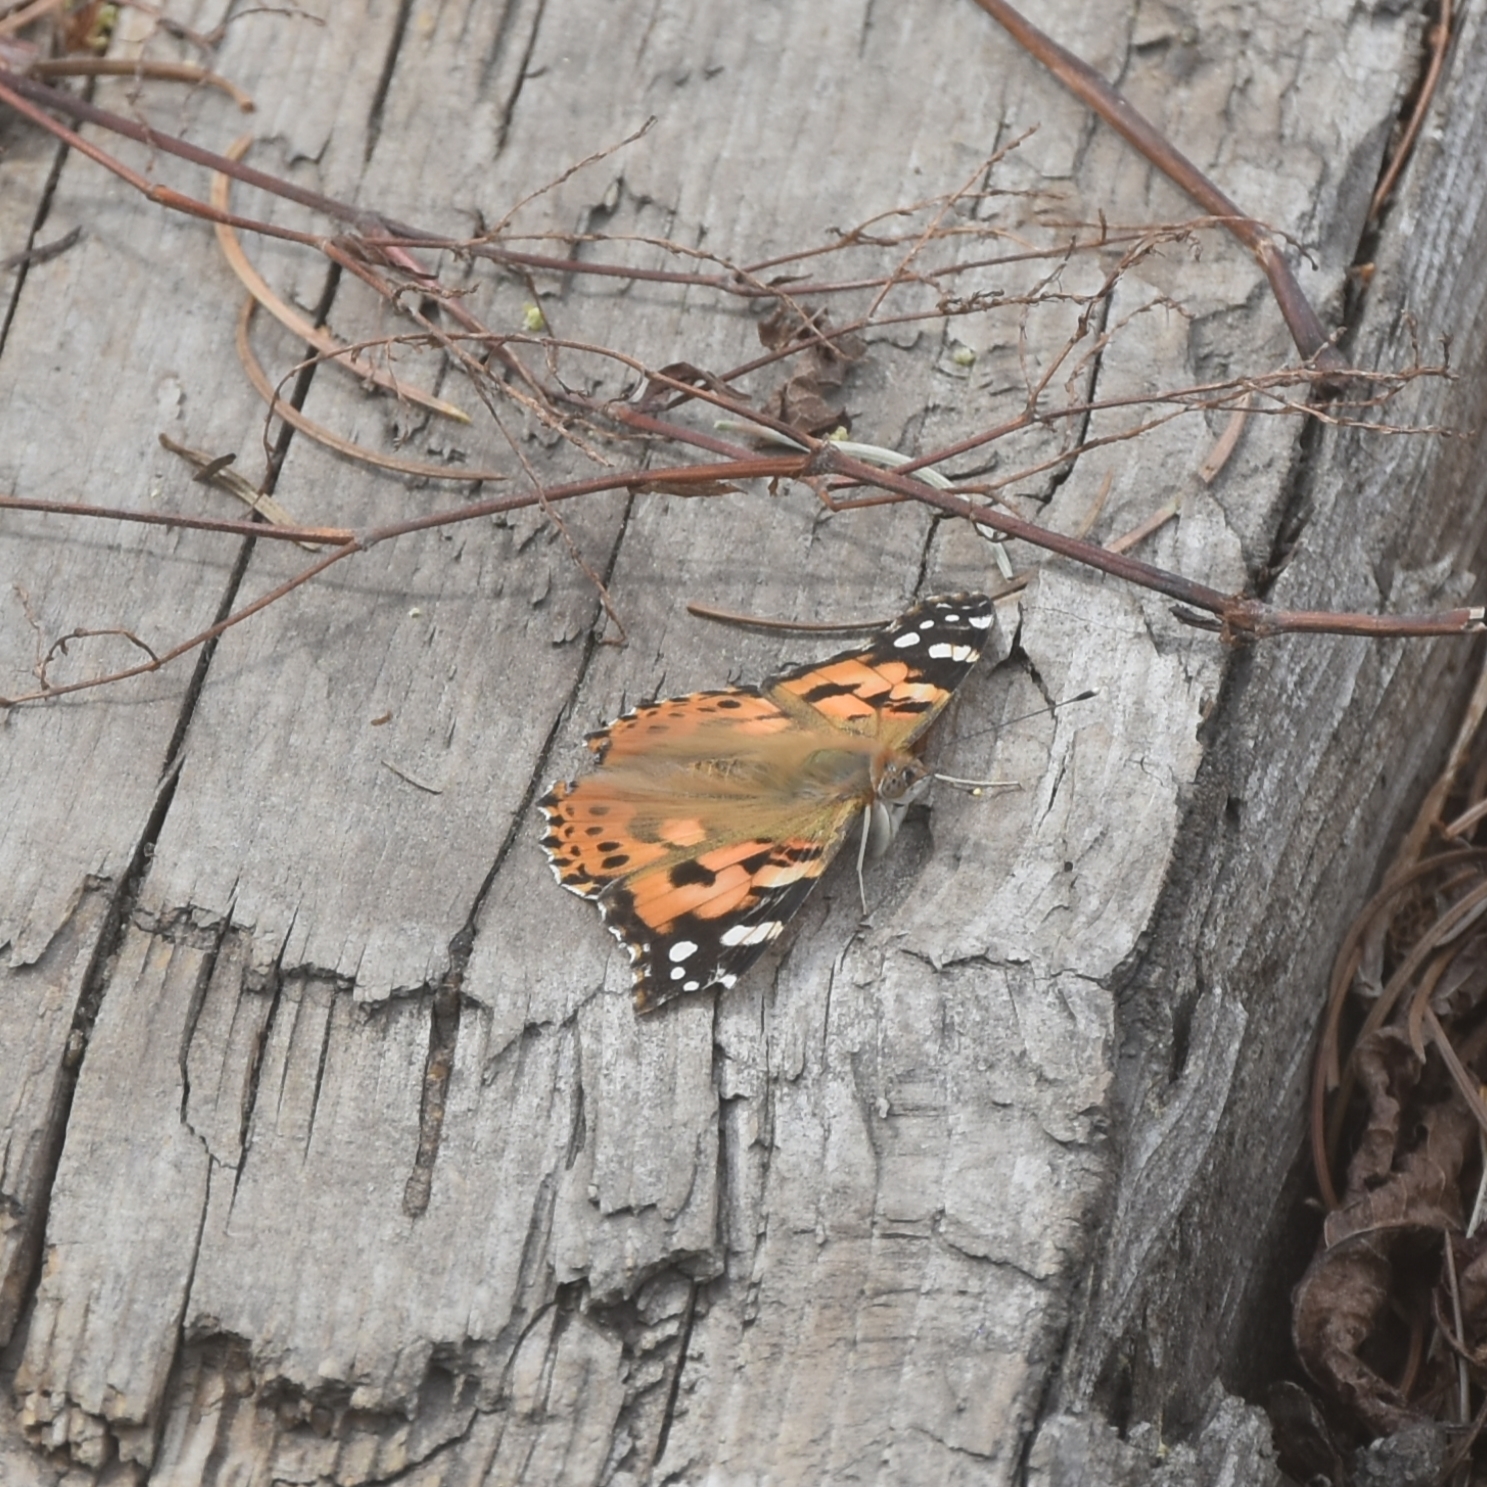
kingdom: Animalia
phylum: Arthropoda
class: Insecta
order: Lepidoptera
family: Nymphalidae
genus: Vanessa
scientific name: Vanessa cardui
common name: Painted lady
